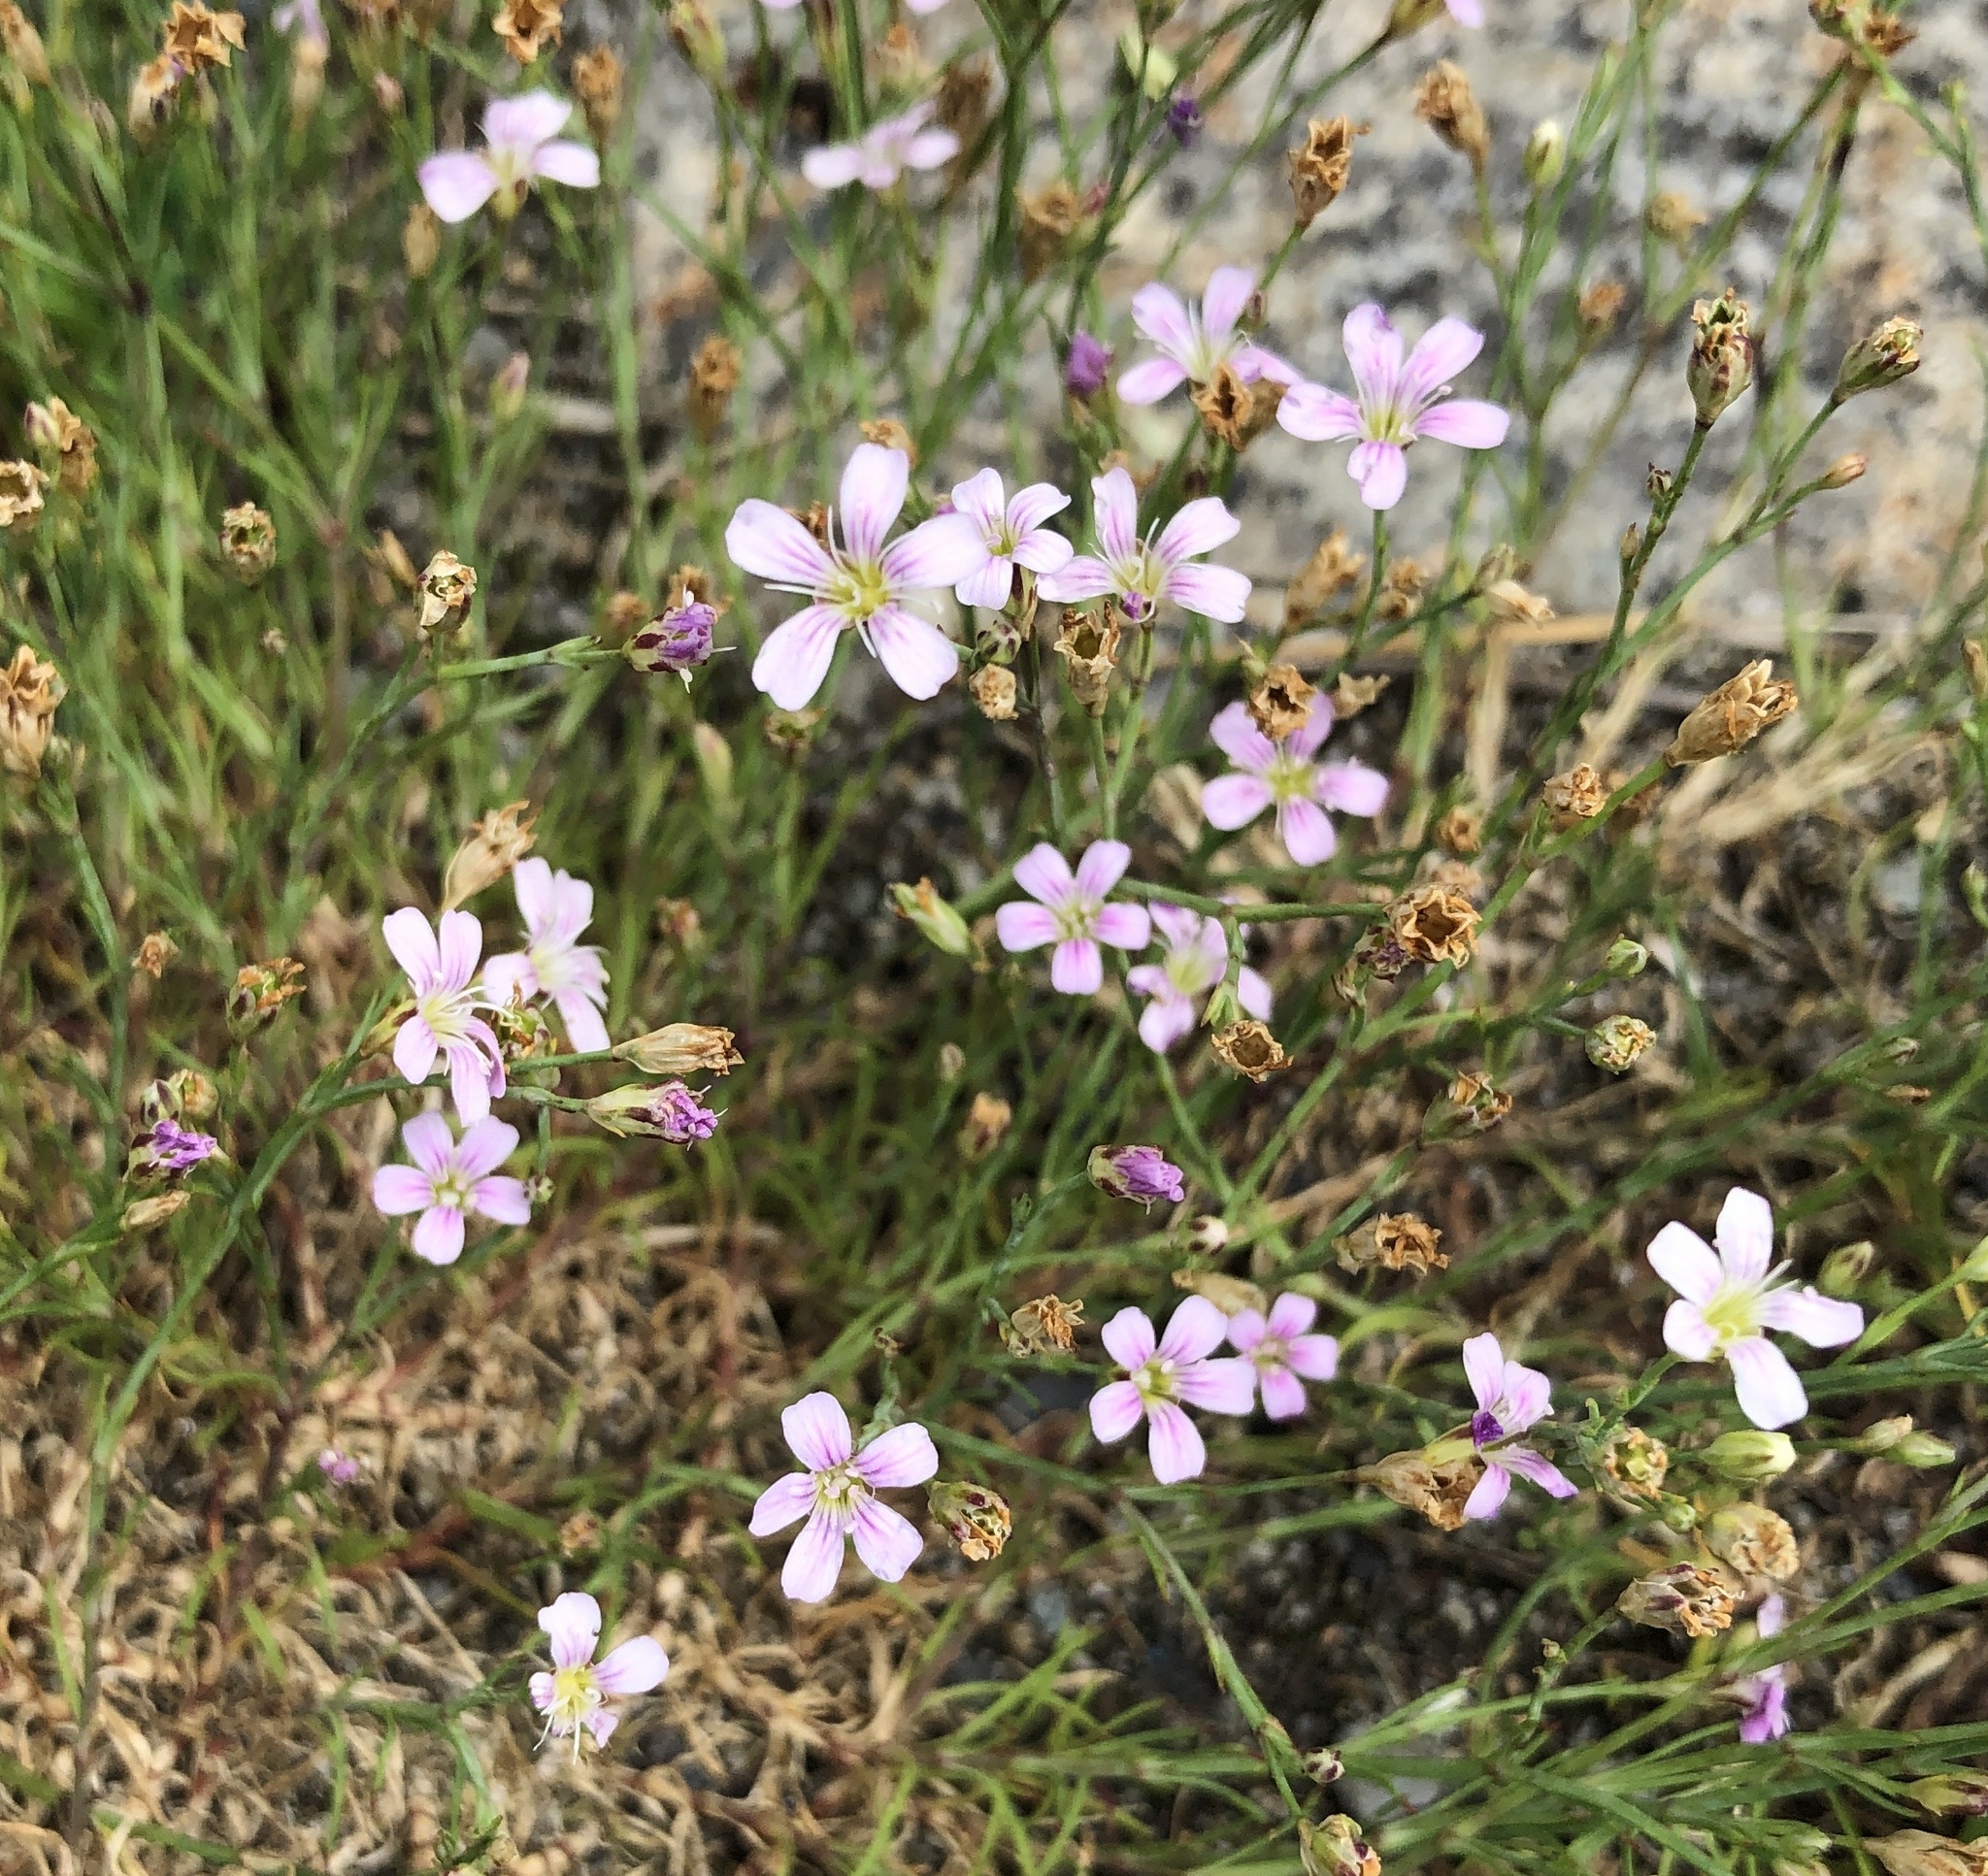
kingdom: Plantae
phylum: Tracheophyta
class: Magnoliopsida
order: Caryophyllales
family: Caryophyllaceae
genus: Petrorhagia
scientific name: Petrorhagia saxifraga
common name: Tunicflower
